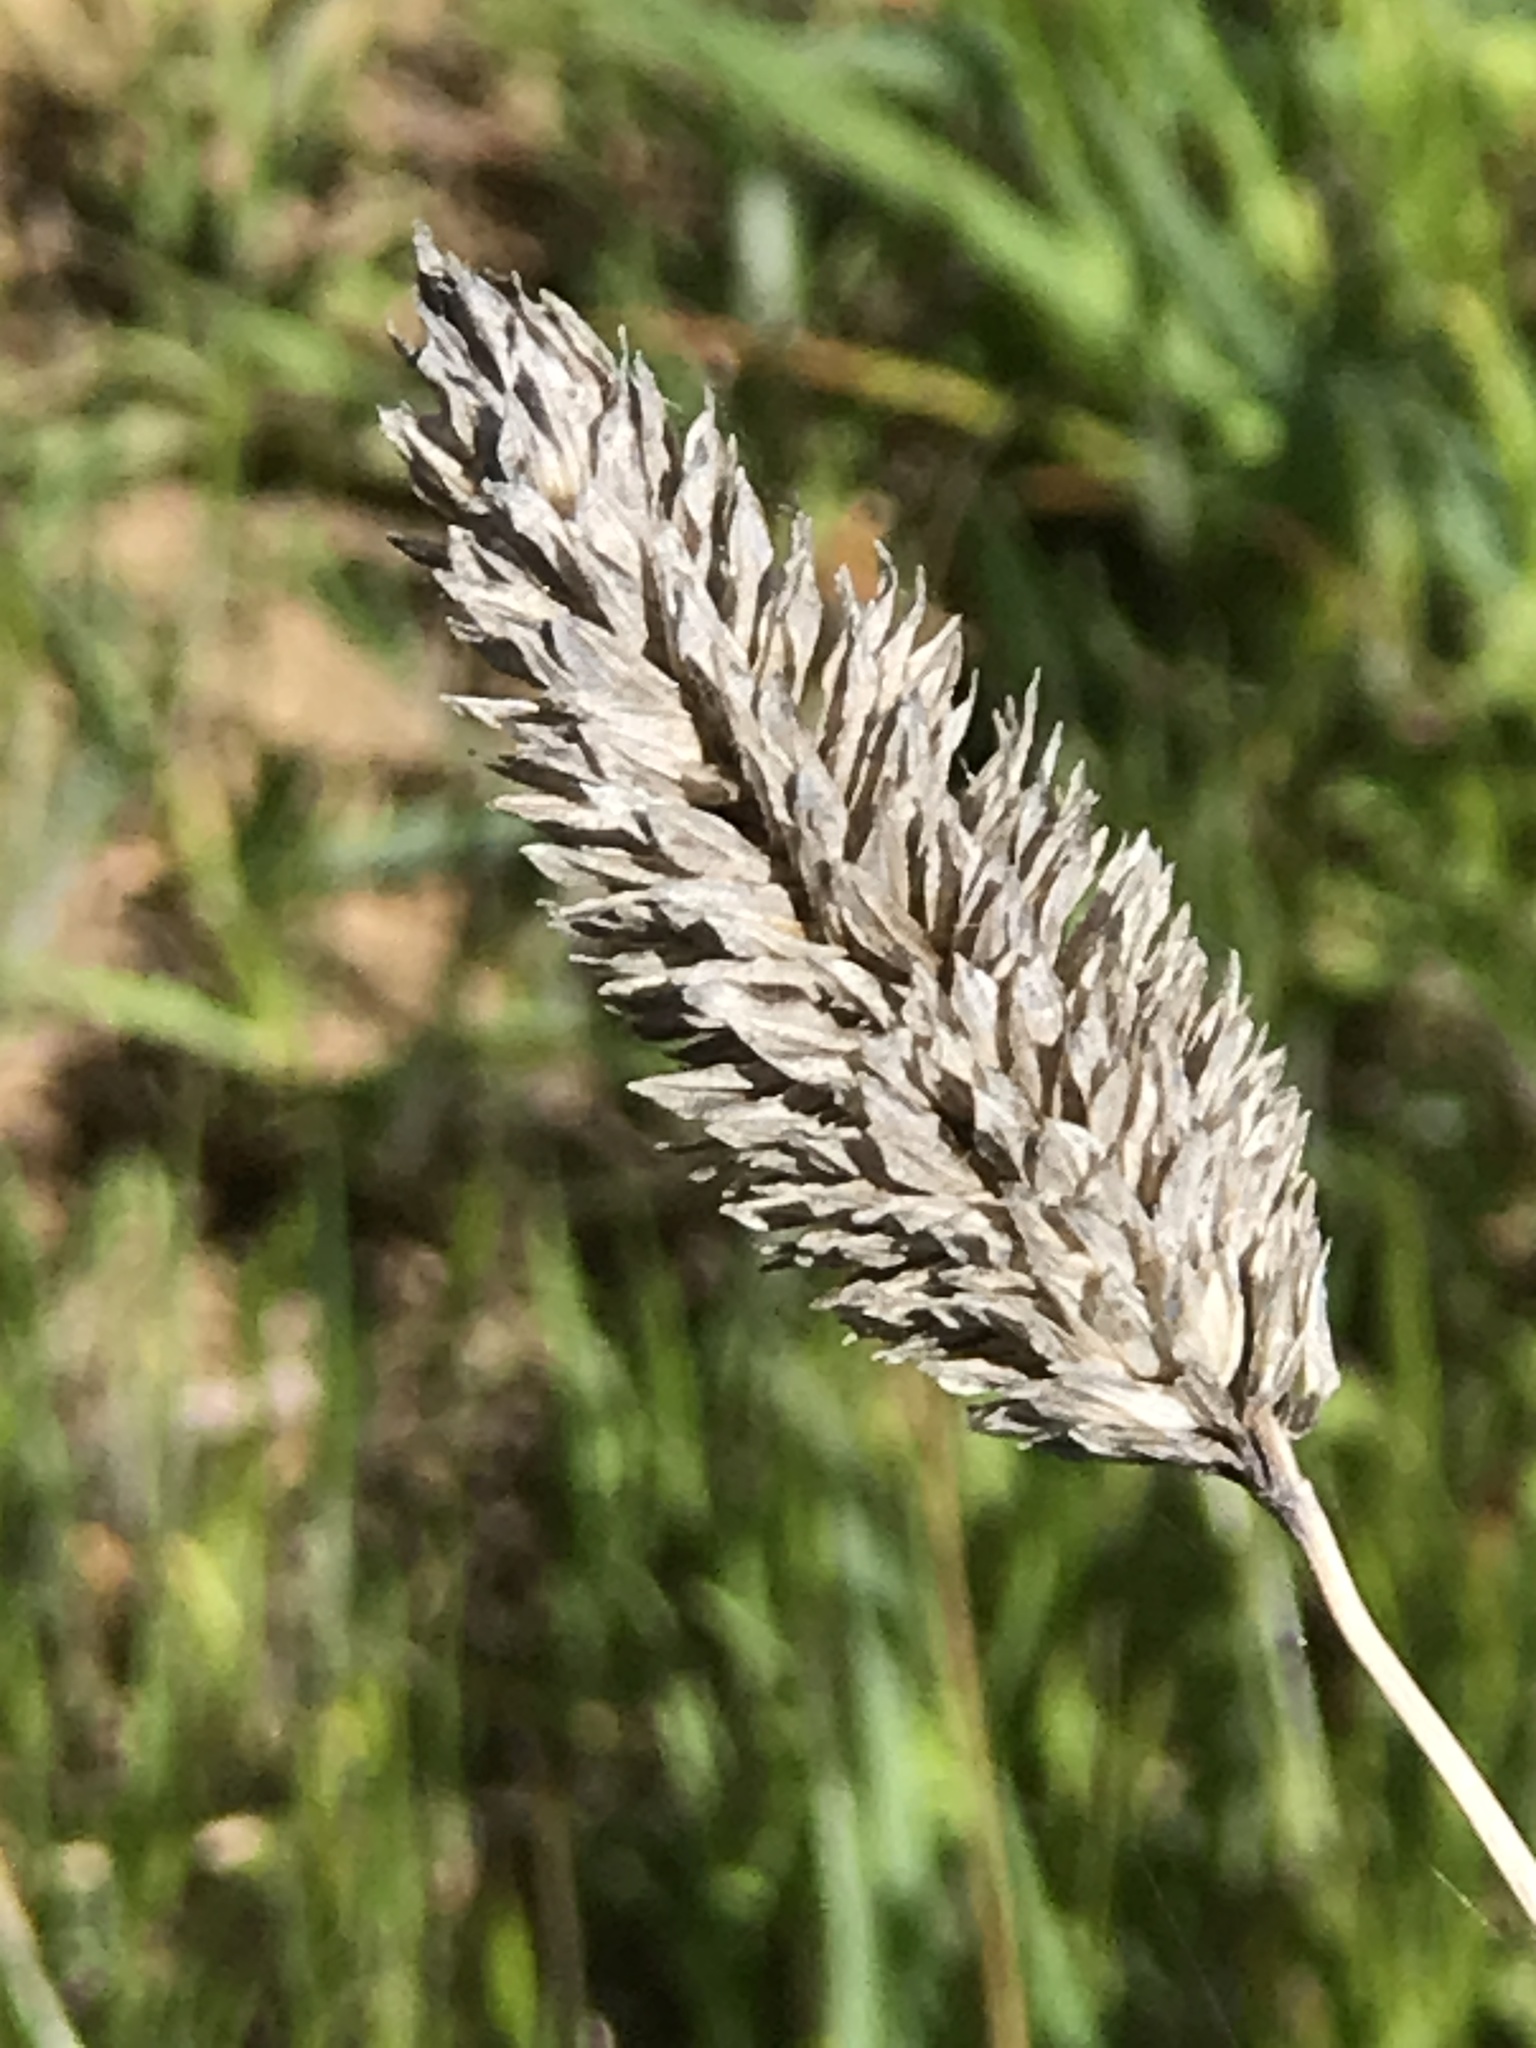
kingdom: Plantae
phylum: Tracheophyta
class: Liliopsida
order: Poales
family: Poaceae
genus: Phalaris
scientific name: Phalaris aquatica
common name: Bulbous canary-grass
